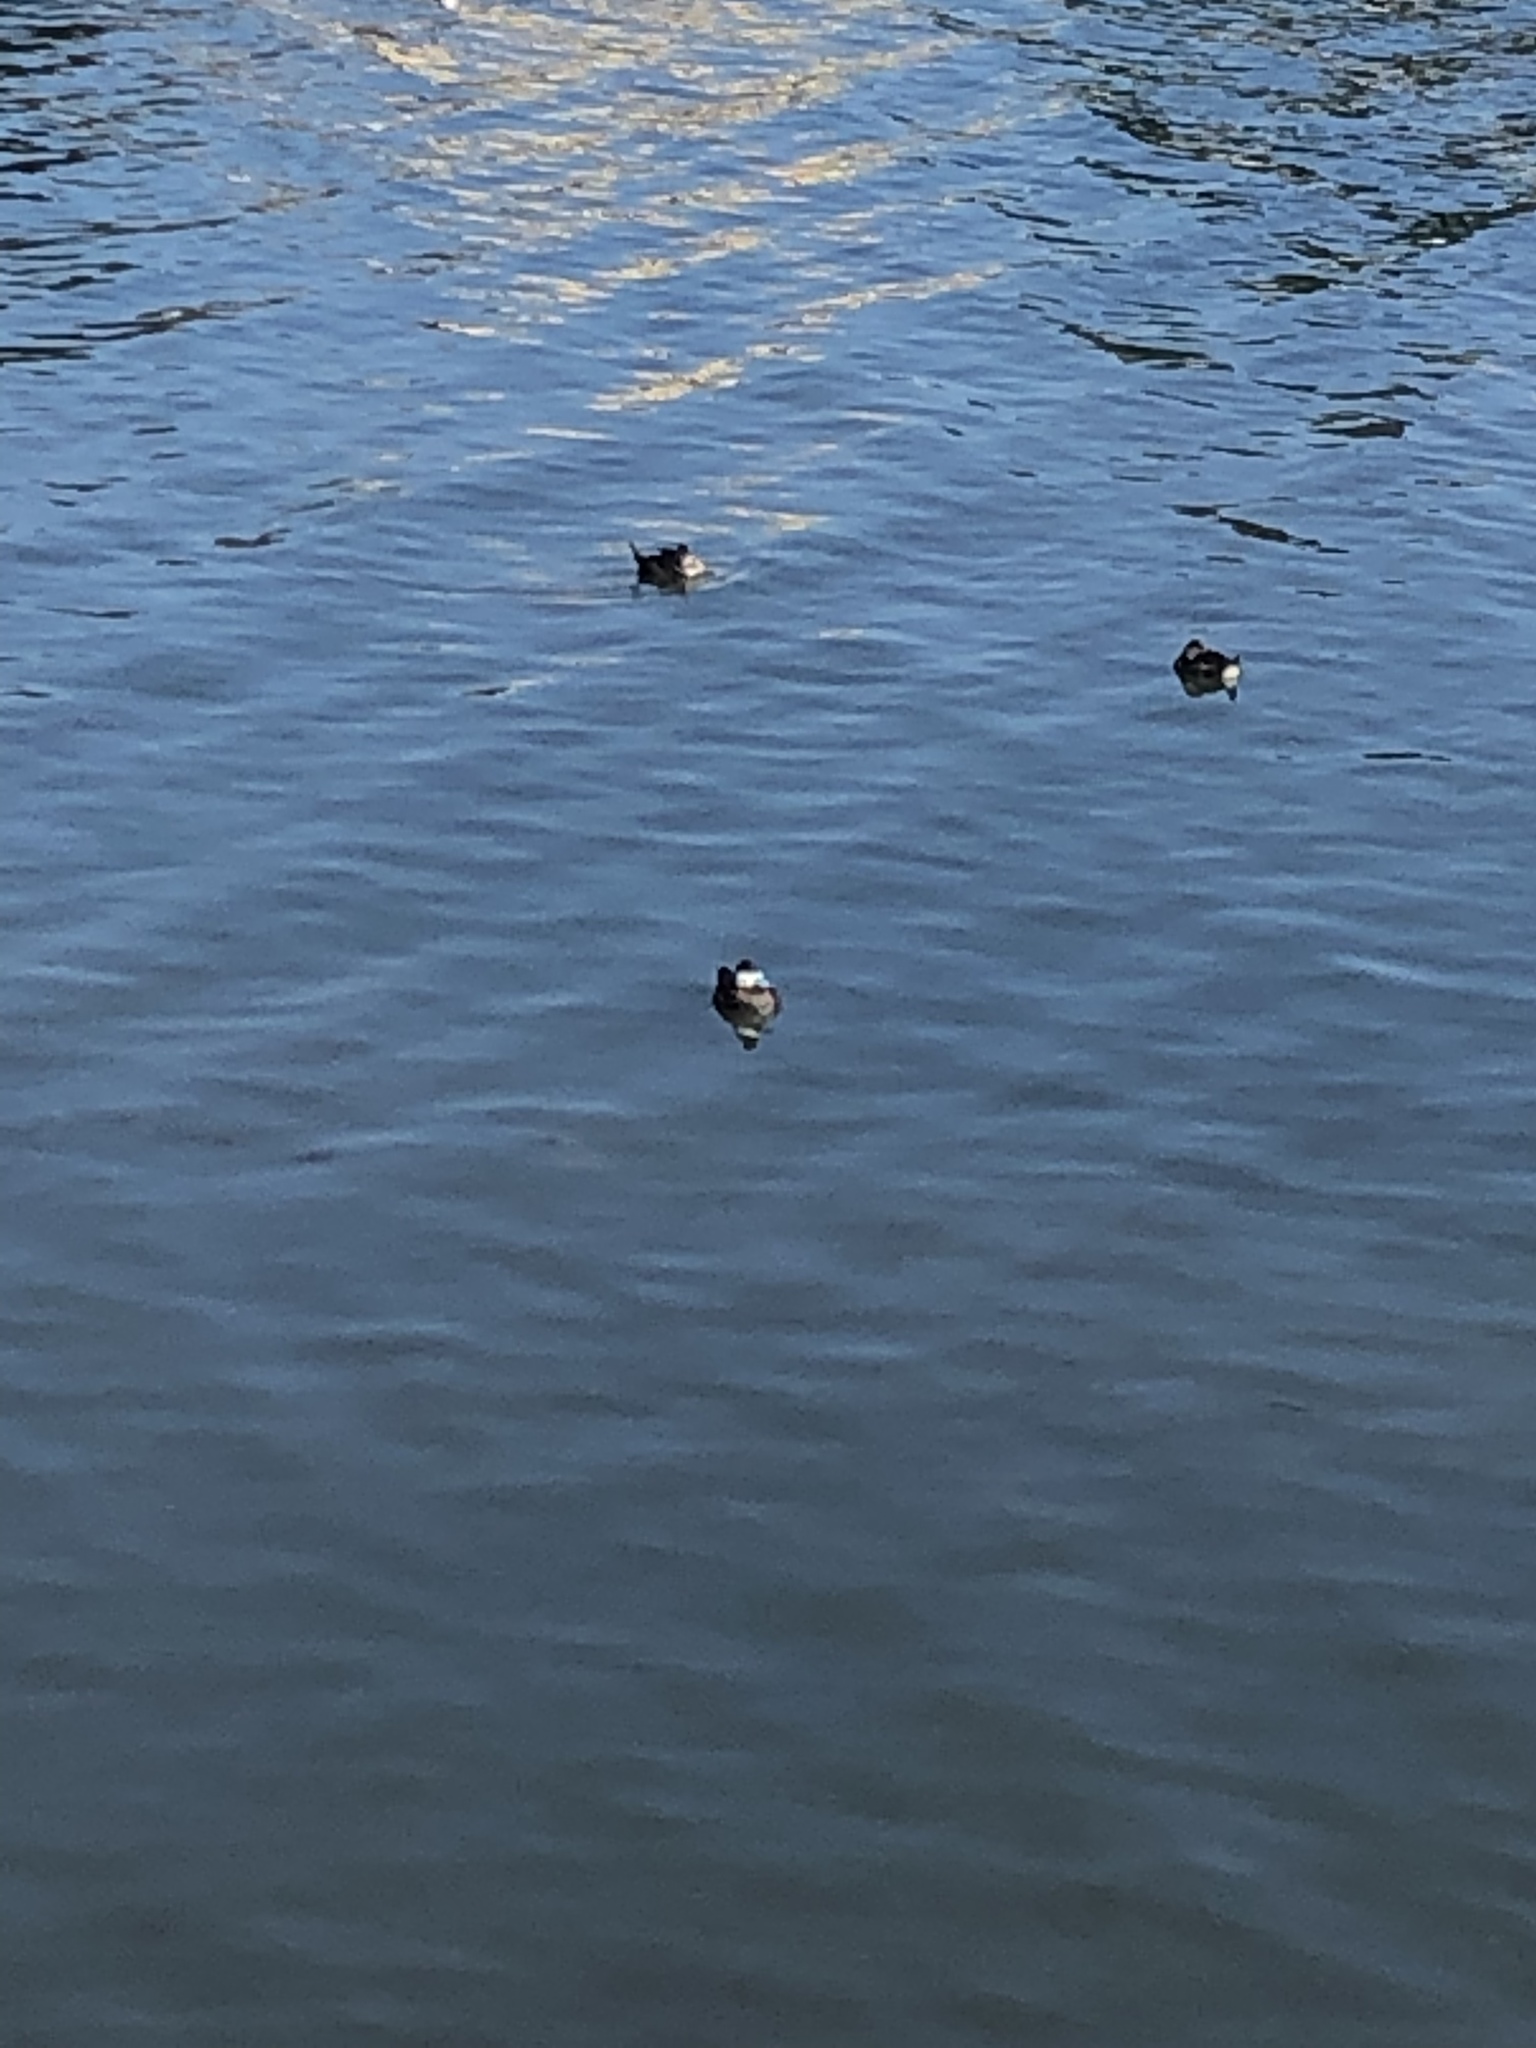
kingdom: Animalia
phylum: Chordata
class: Aves
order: Anseriformes
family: Anatidae
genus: Oxyura
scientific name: Oxyura jamaicensis
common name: Ruddy duck
